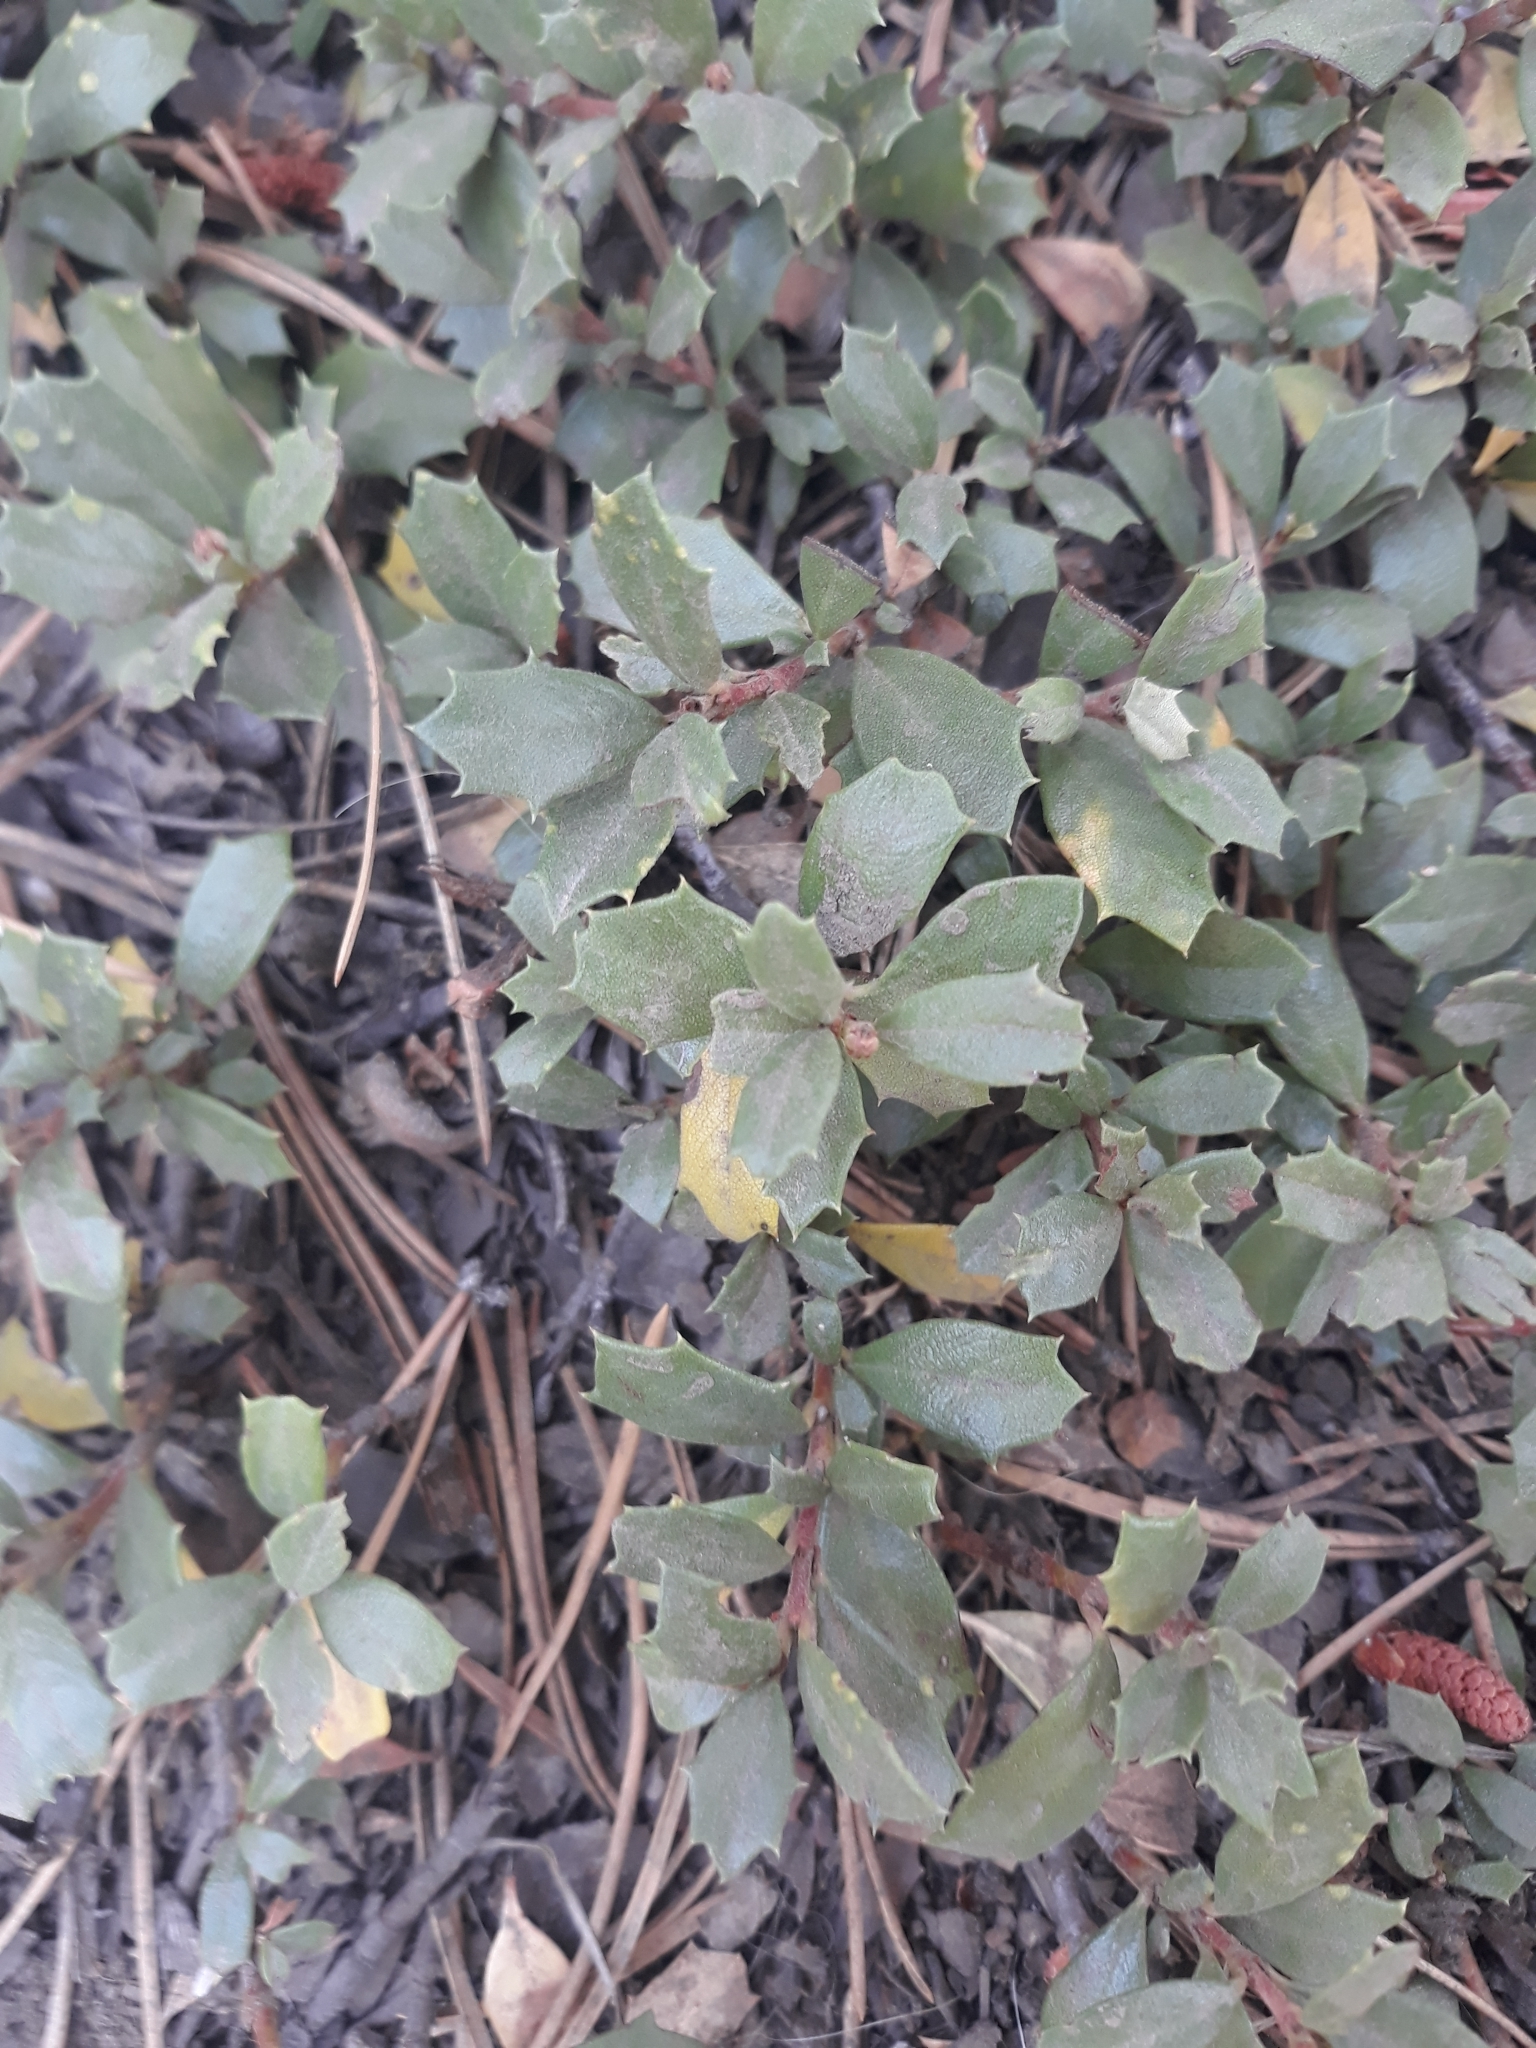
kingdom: Plantae
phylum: Tracheophyta
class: Magnoliopsida
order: Rosales
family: Rhamnaceae
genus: Ceanothus
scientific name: Ceanothus prostratus
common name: Mahala-mat
